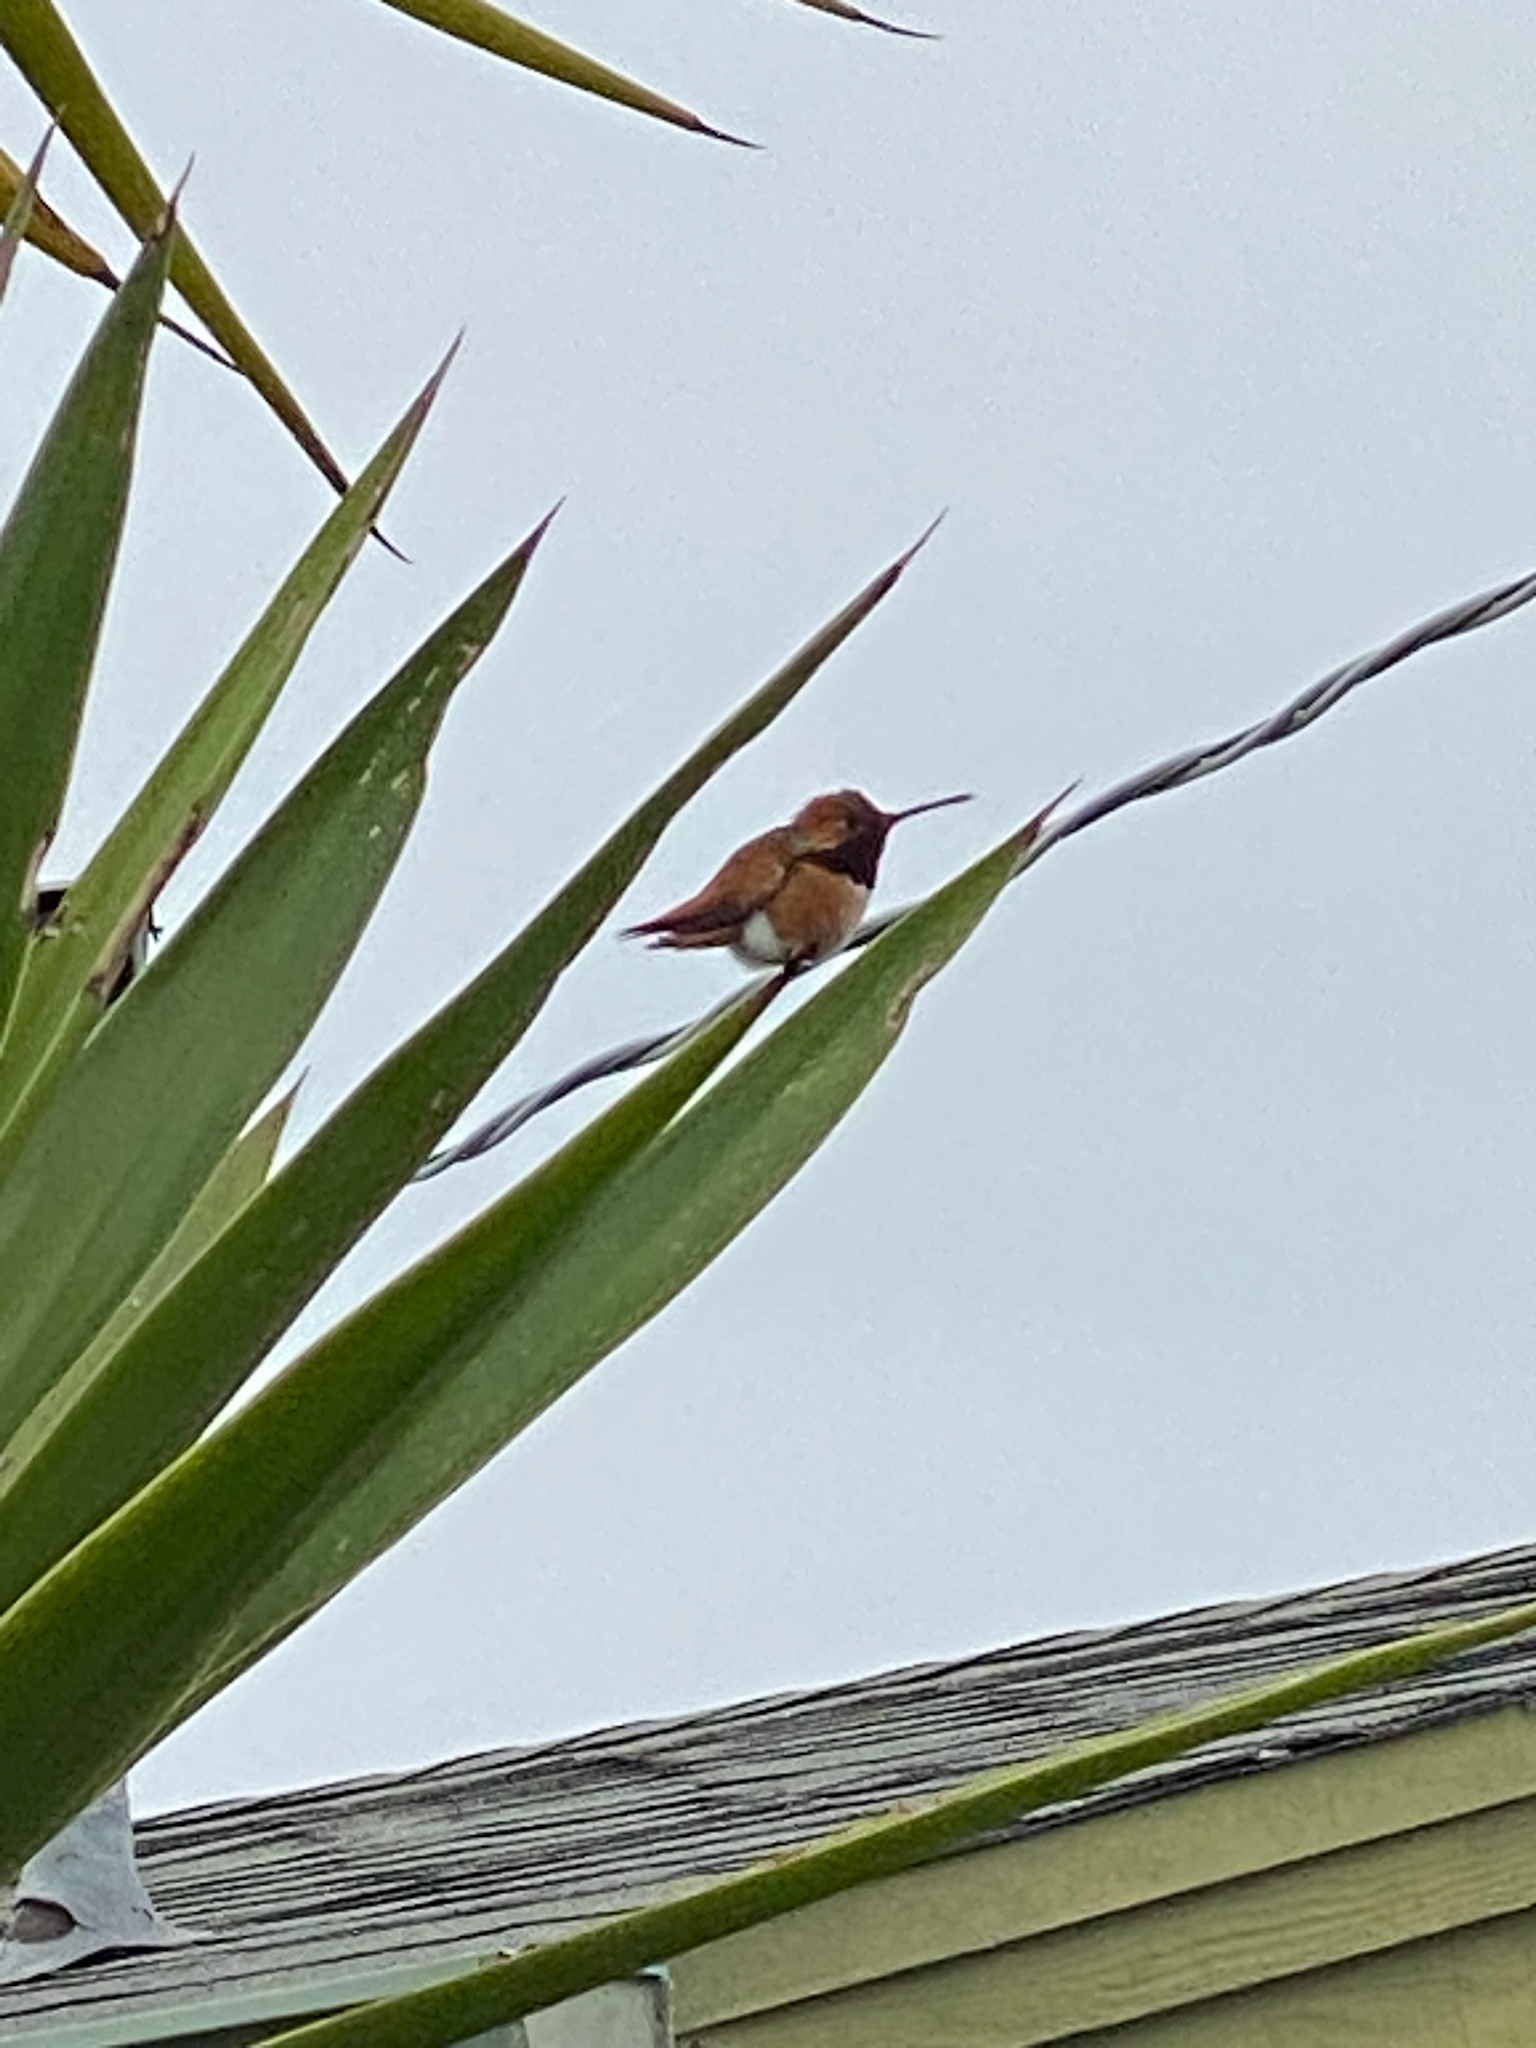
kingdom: Animalia
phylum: Chordata
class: Aves
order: Apodiformes
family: Trochilidae
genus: Selasphorus
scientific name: Selasphorus rufus
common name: Rufous hummingbird
